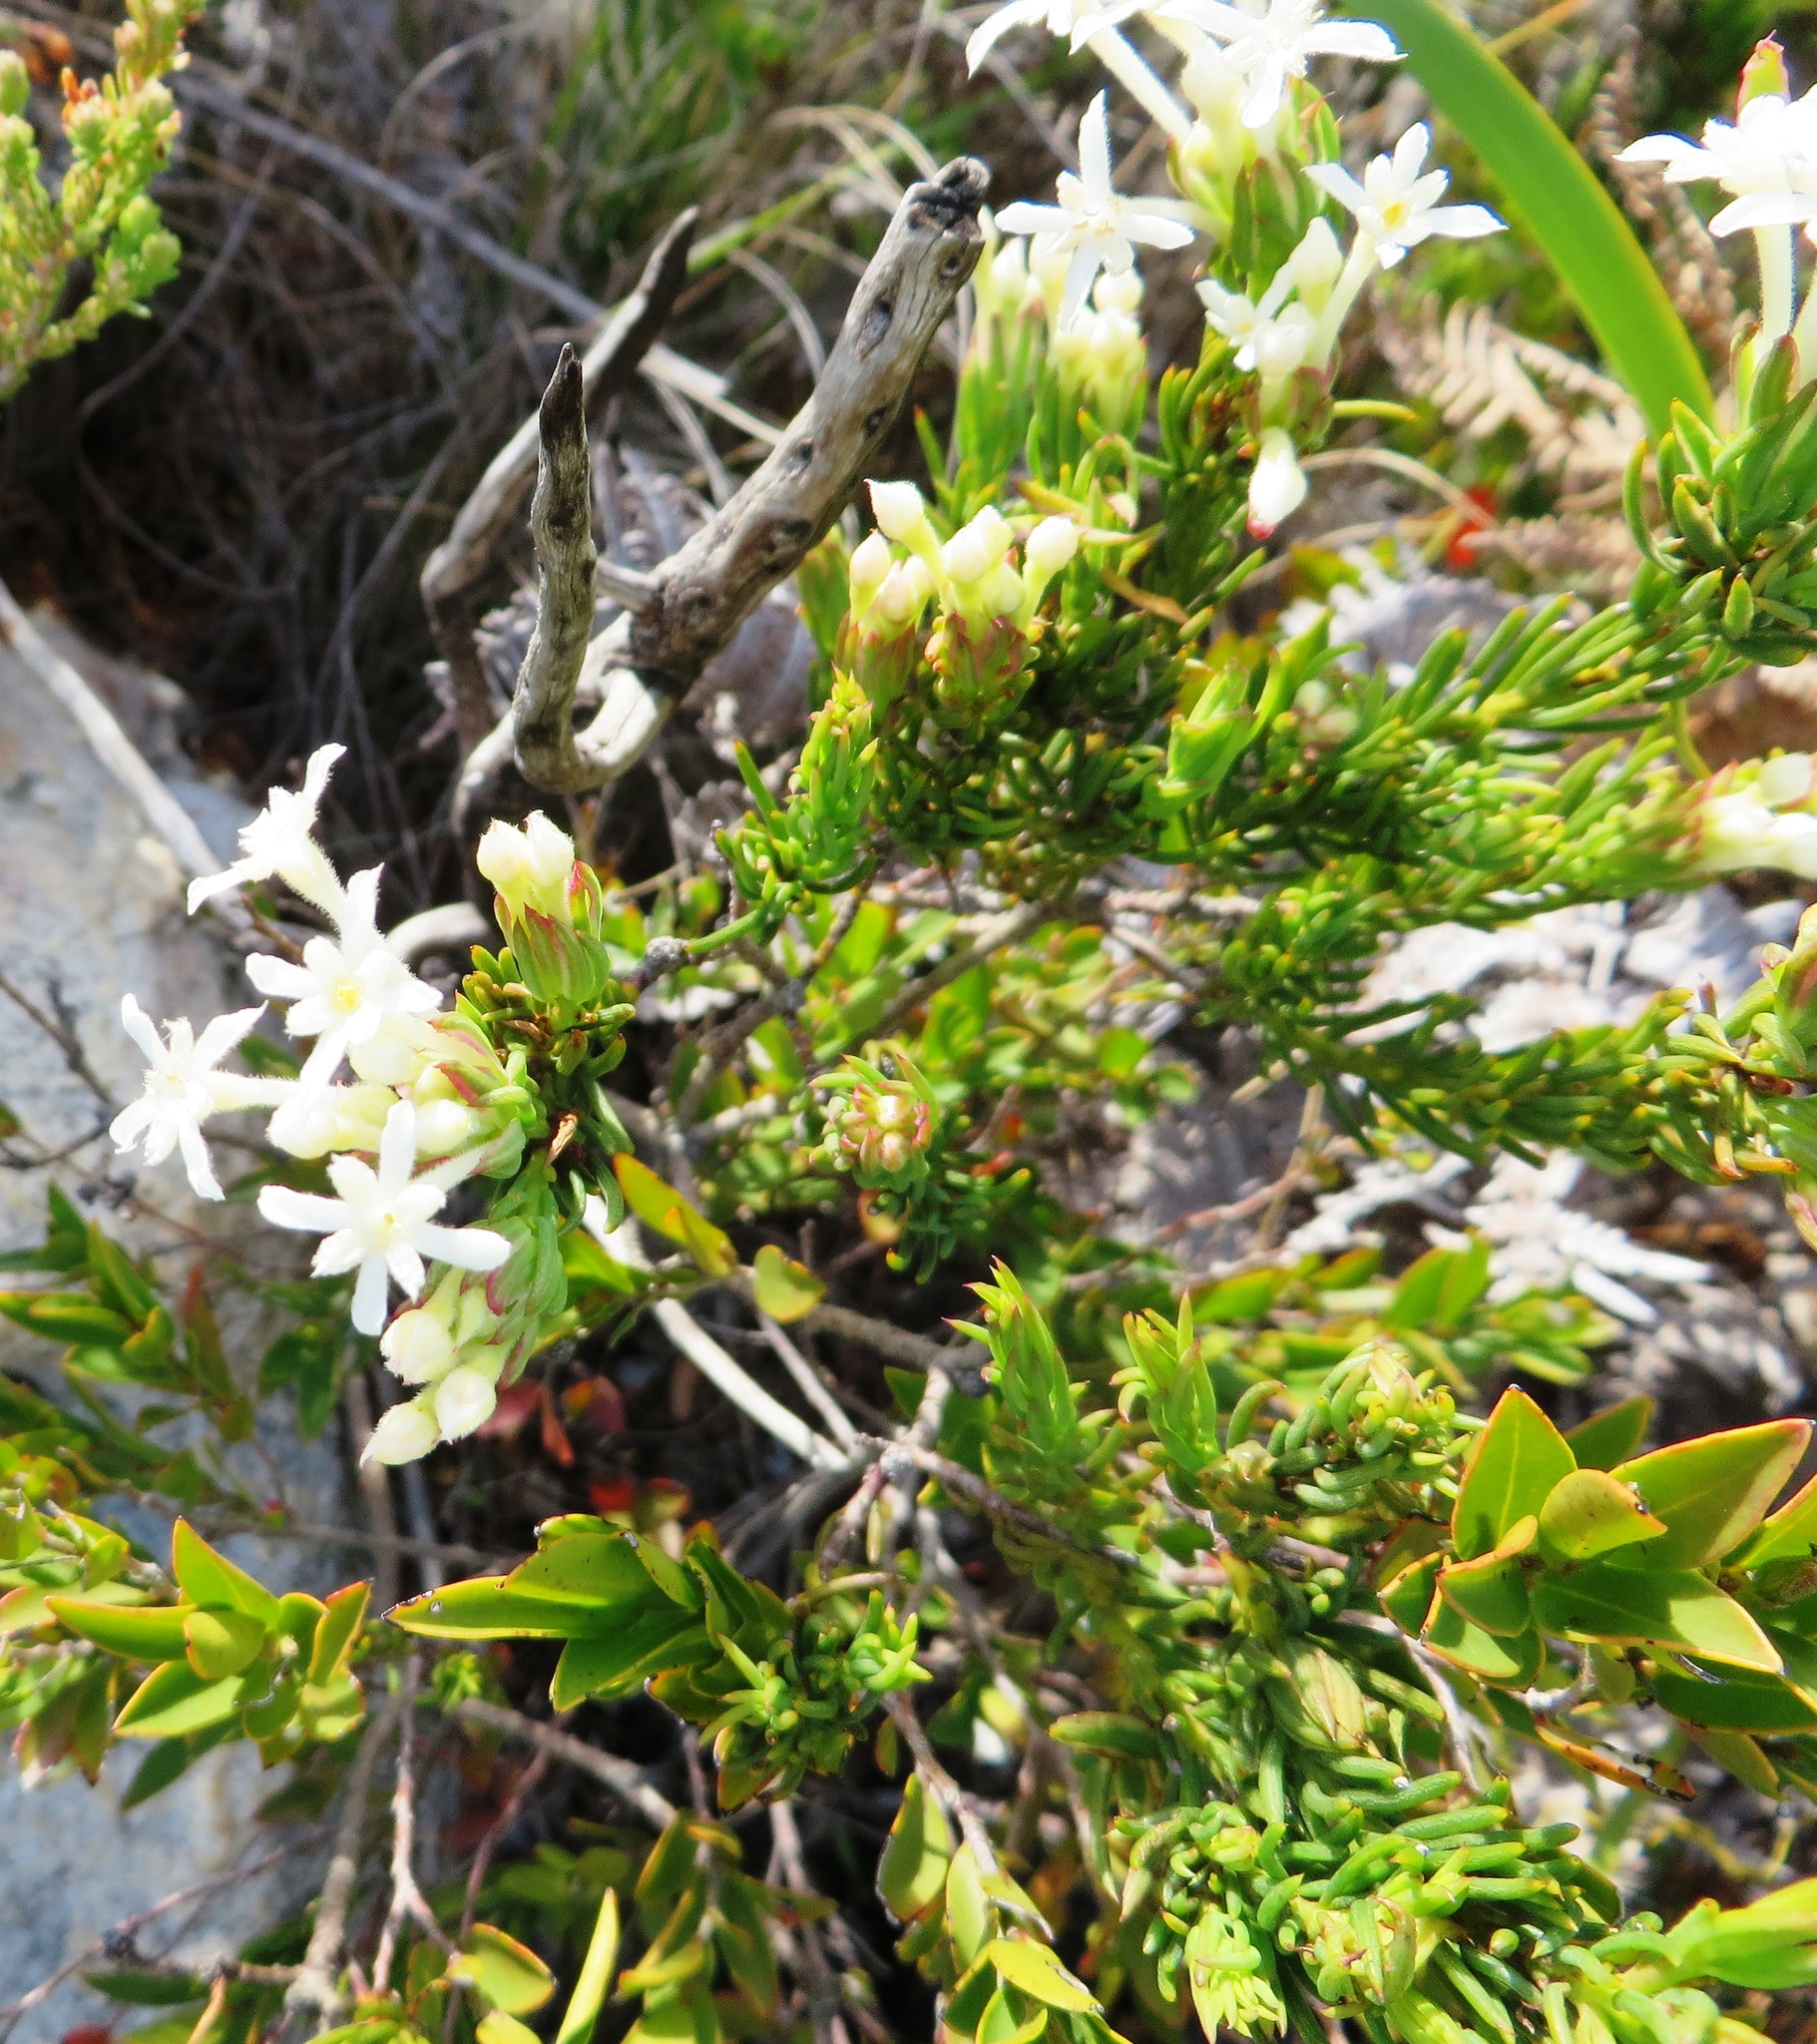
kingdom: Plantae
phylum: Tracheophyta
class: Magnoliopsida
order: Malvales
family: Thymelaeaceae
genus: Gnidia
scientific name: Gnidia pinifolia
